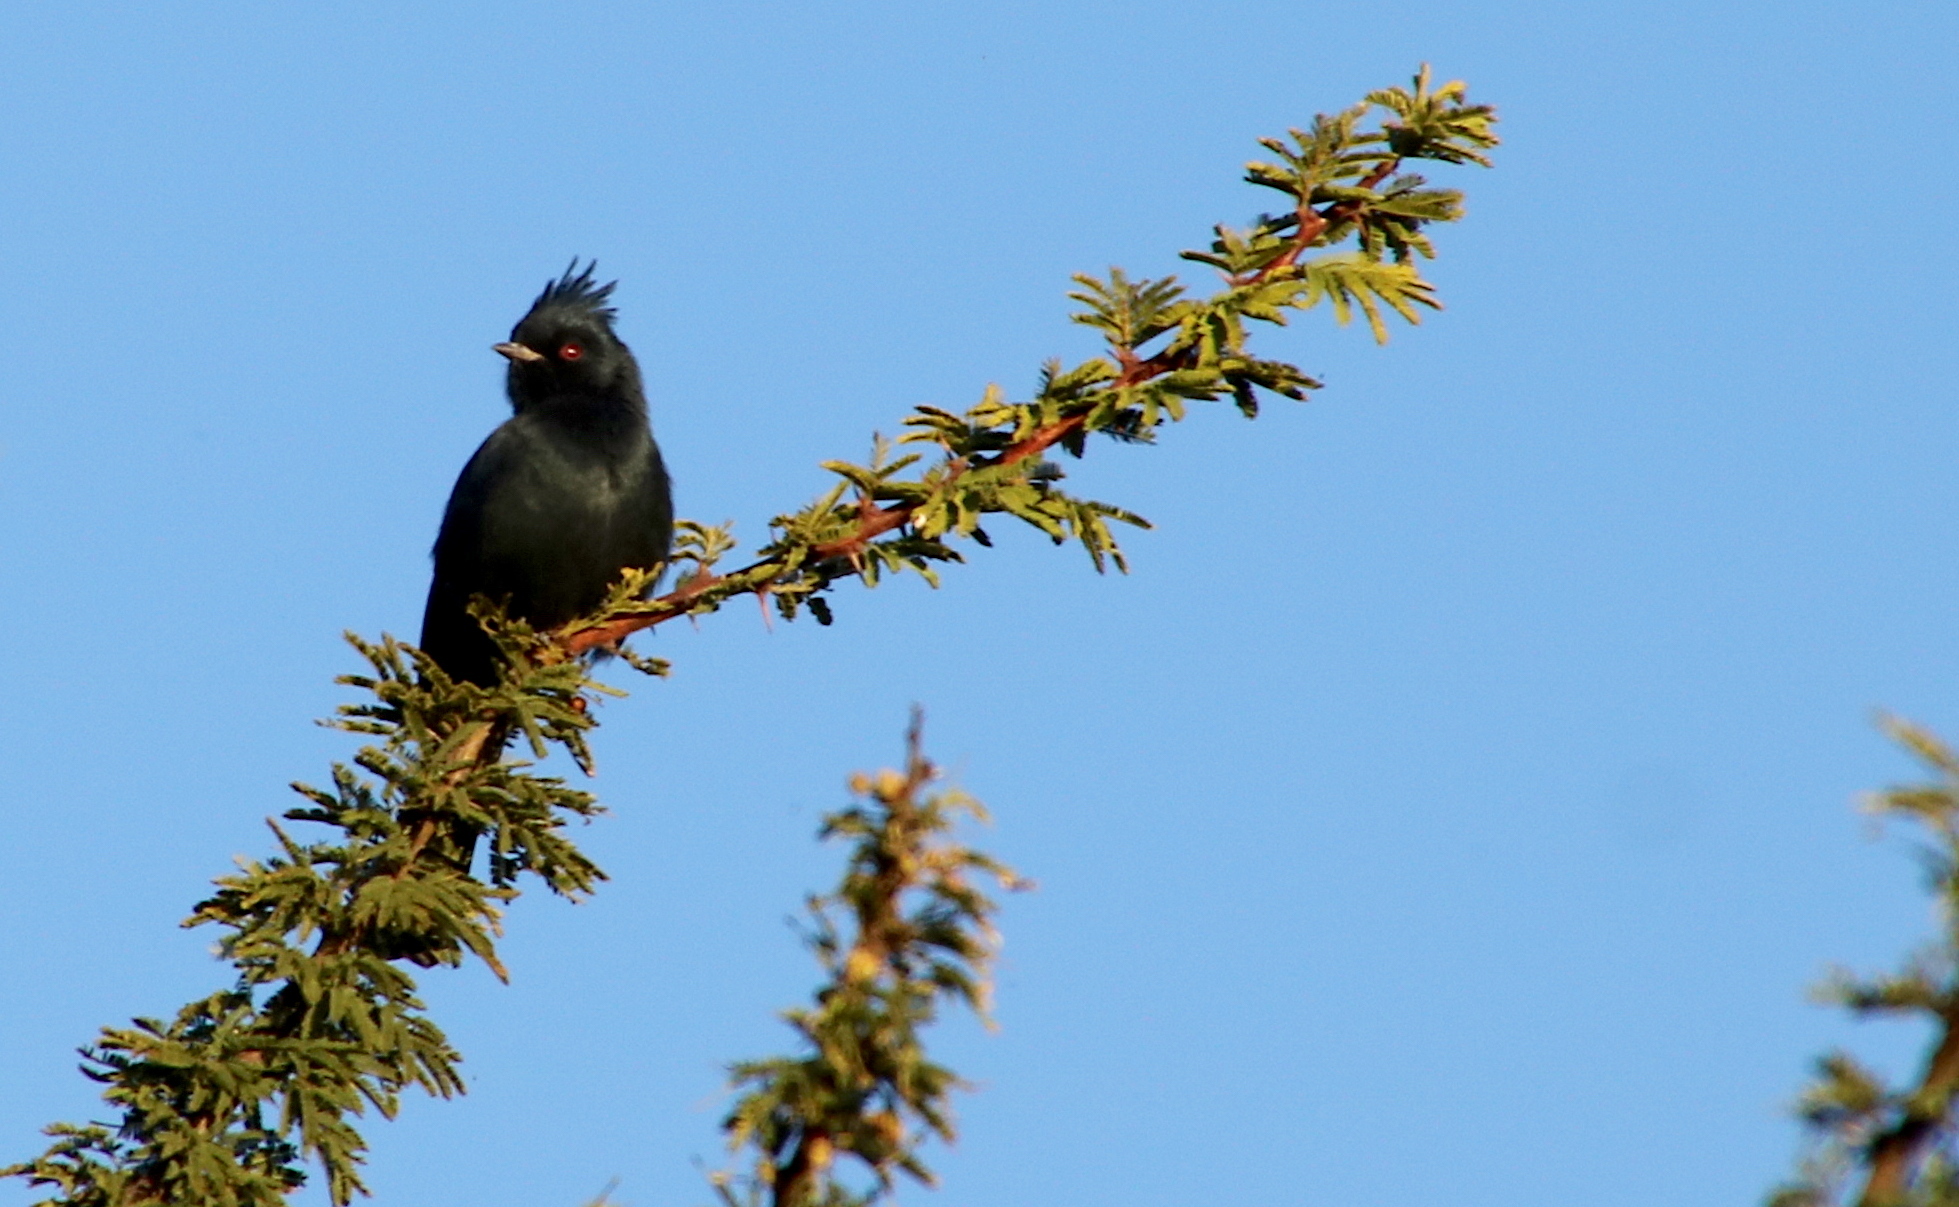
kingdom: Animalia
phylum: Chordata
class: Aves
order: Passeriformes
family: Ptilogonatidae
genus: Phainopepla
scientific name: Phainopepla nitens
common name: Phainopepla
